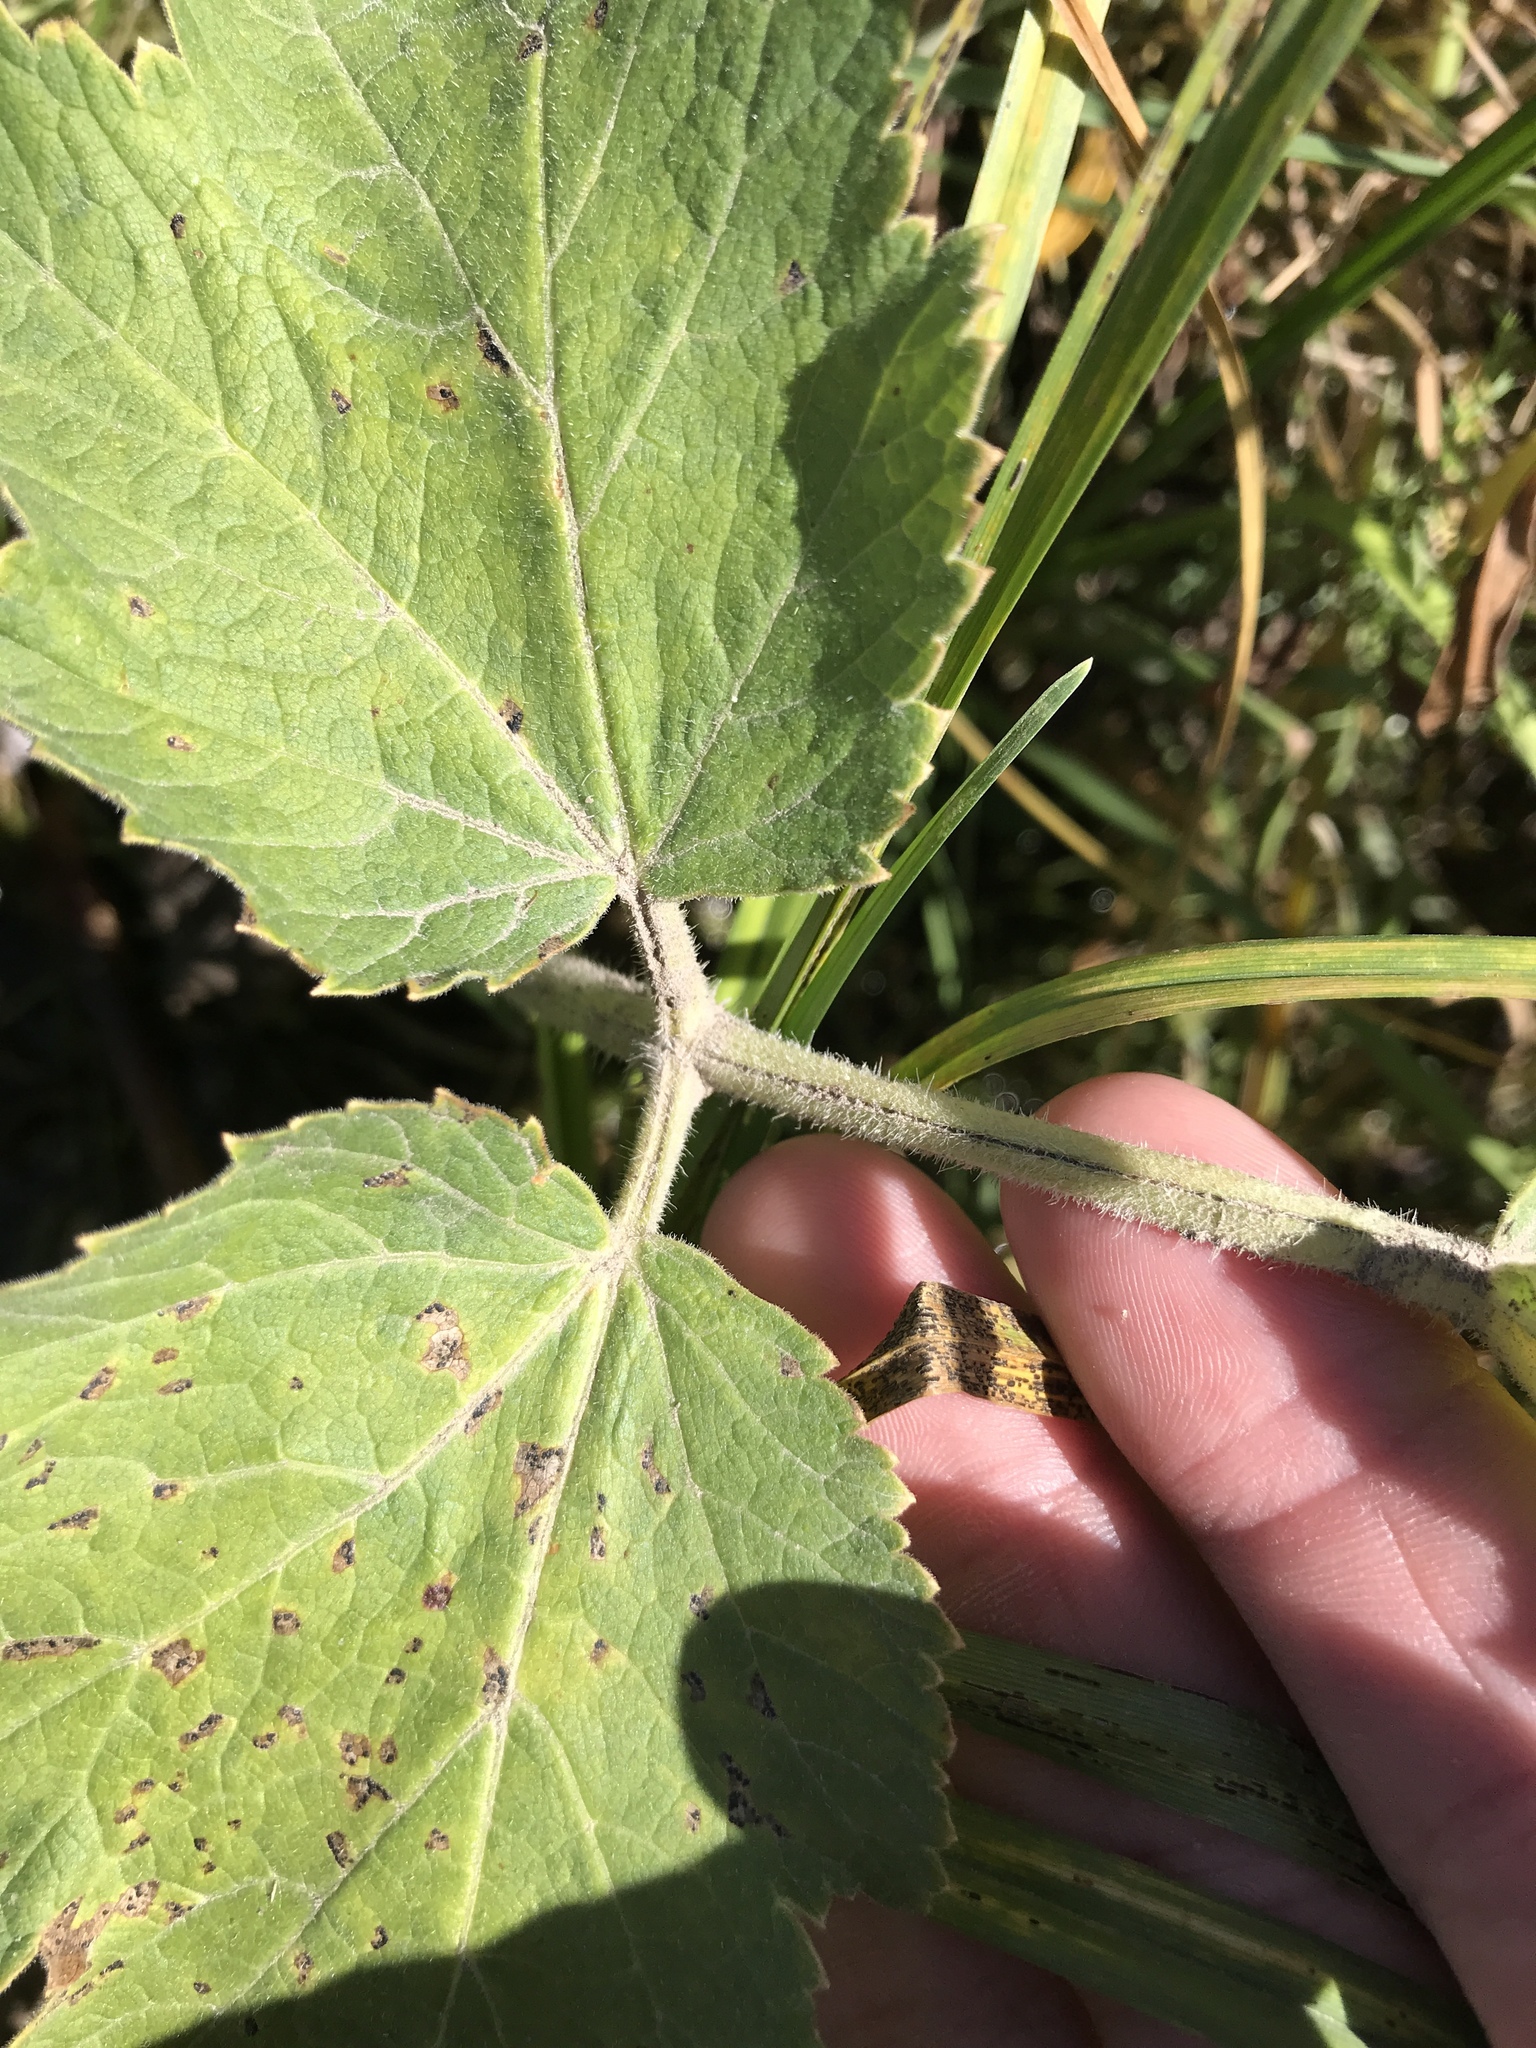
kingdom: Plantae
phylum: Tracheophyta
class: Magnoliopsida
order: Apiales
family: Apiaceae
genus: Heracleum
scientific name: Heracleum maximum
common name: American cow parsnip
